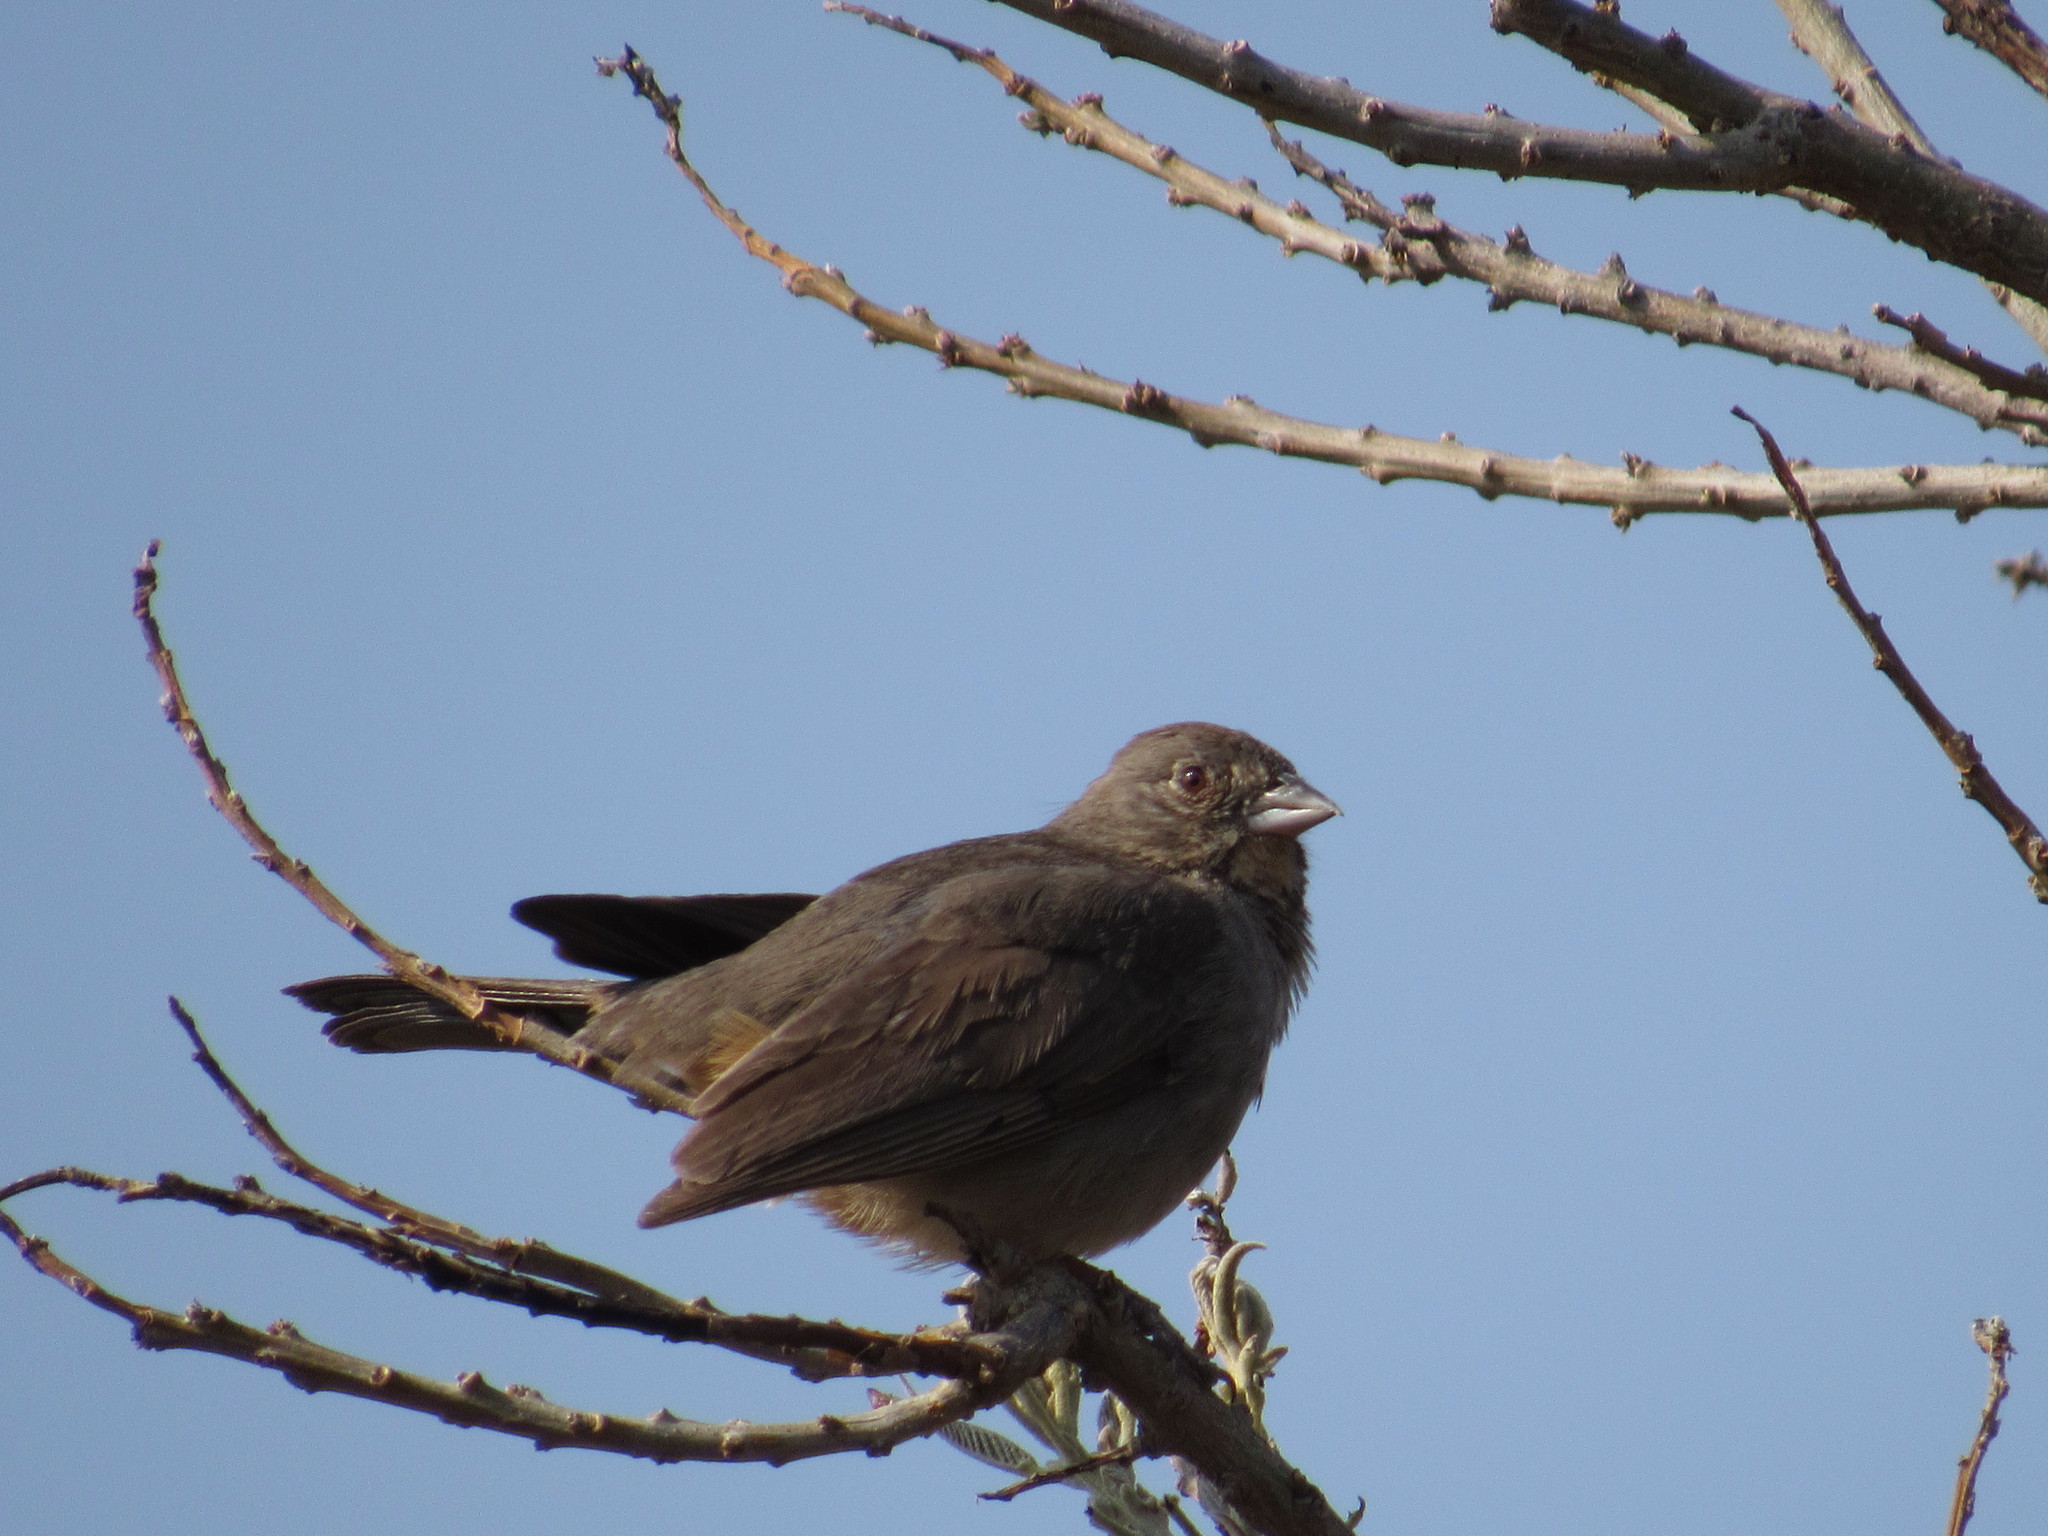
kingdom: Animalia
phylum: Chordata
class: Aves
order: Passeriformes
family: Passerellidae
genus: Melozone
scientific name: Melozone fusca
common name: Canyon towhee
